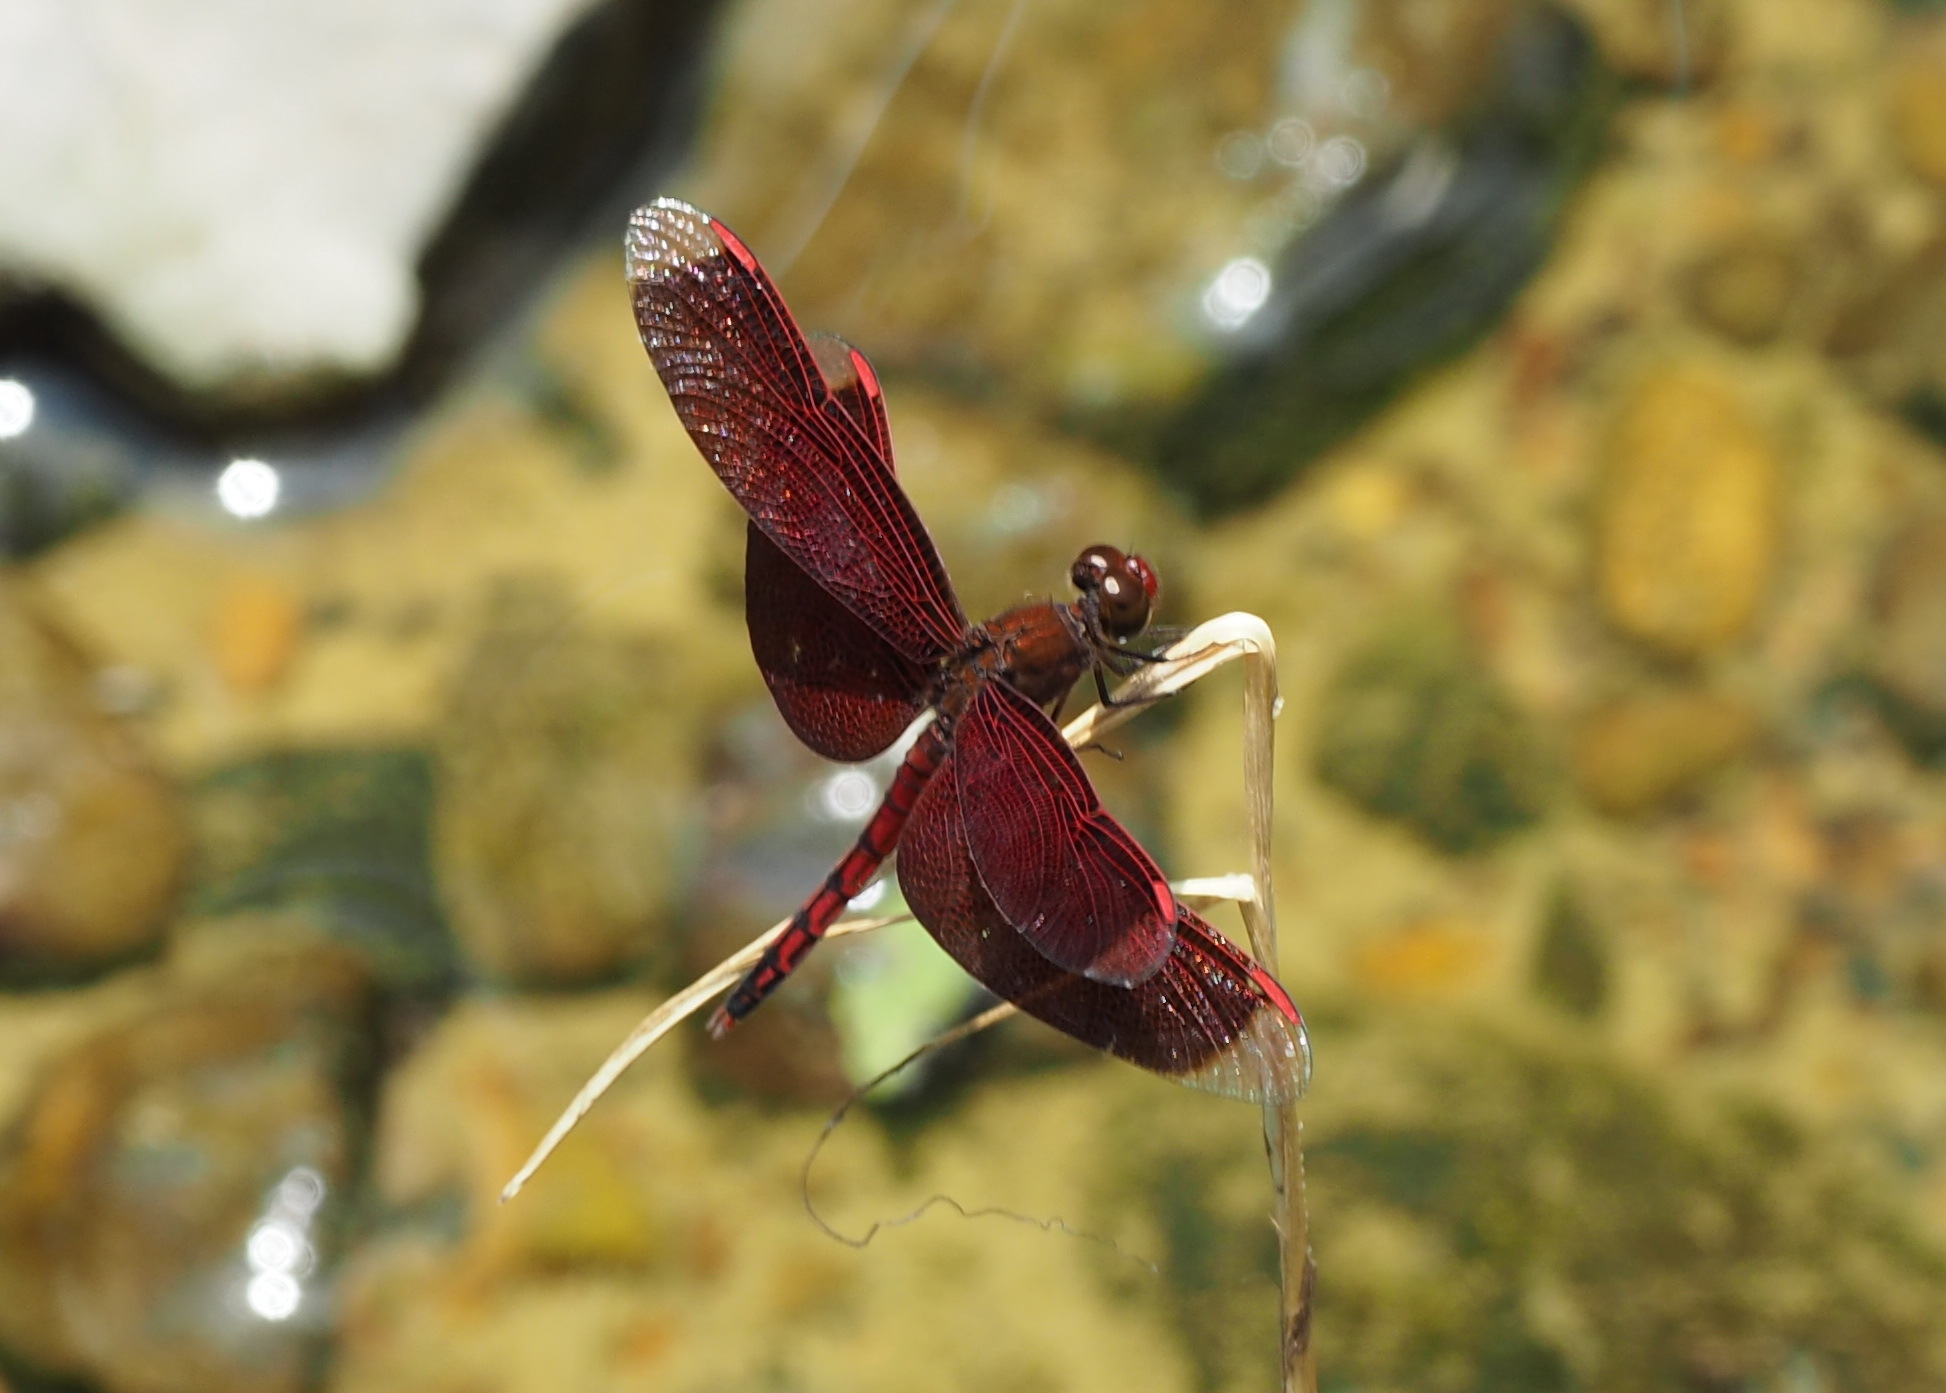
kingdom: Animalia
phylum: Arthropoda
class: Insecta
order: Odonata
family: Libellulidae
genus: Neurothemis
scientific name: Neurothemis taiwanensis
